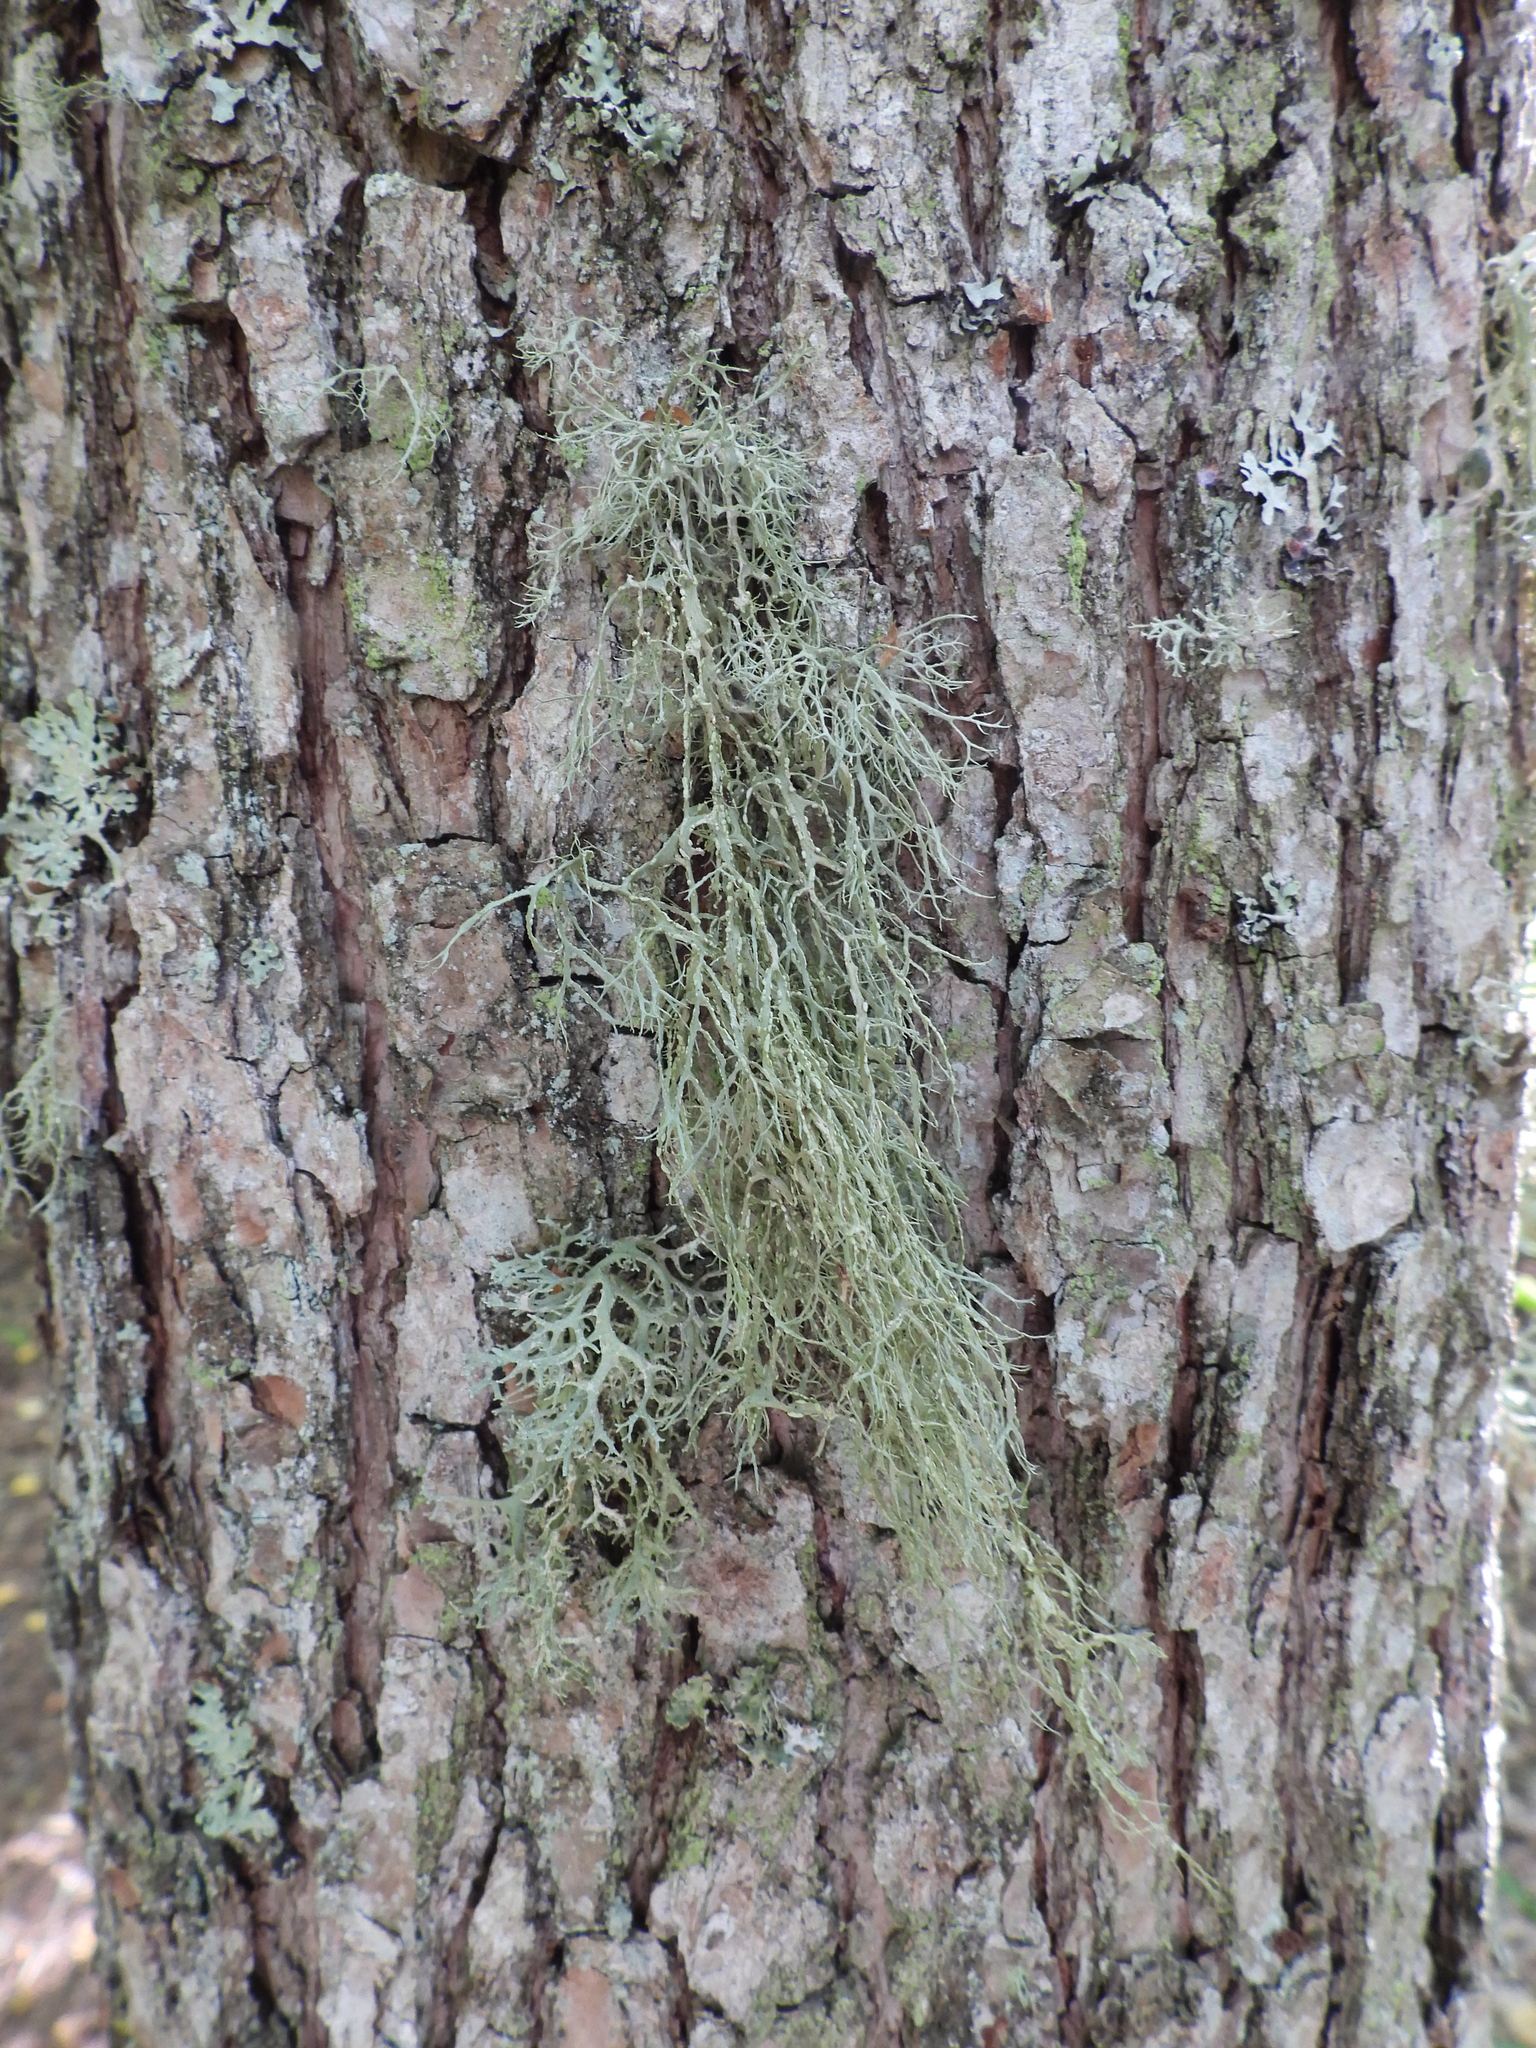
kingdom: Fungi
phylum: Ascomycota
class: Lecanoromycetes
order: Lecanorales
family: Ramalinaceae
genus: Ramalina
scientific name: Ramalina farinacea
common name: Farinose cartilage lichen
